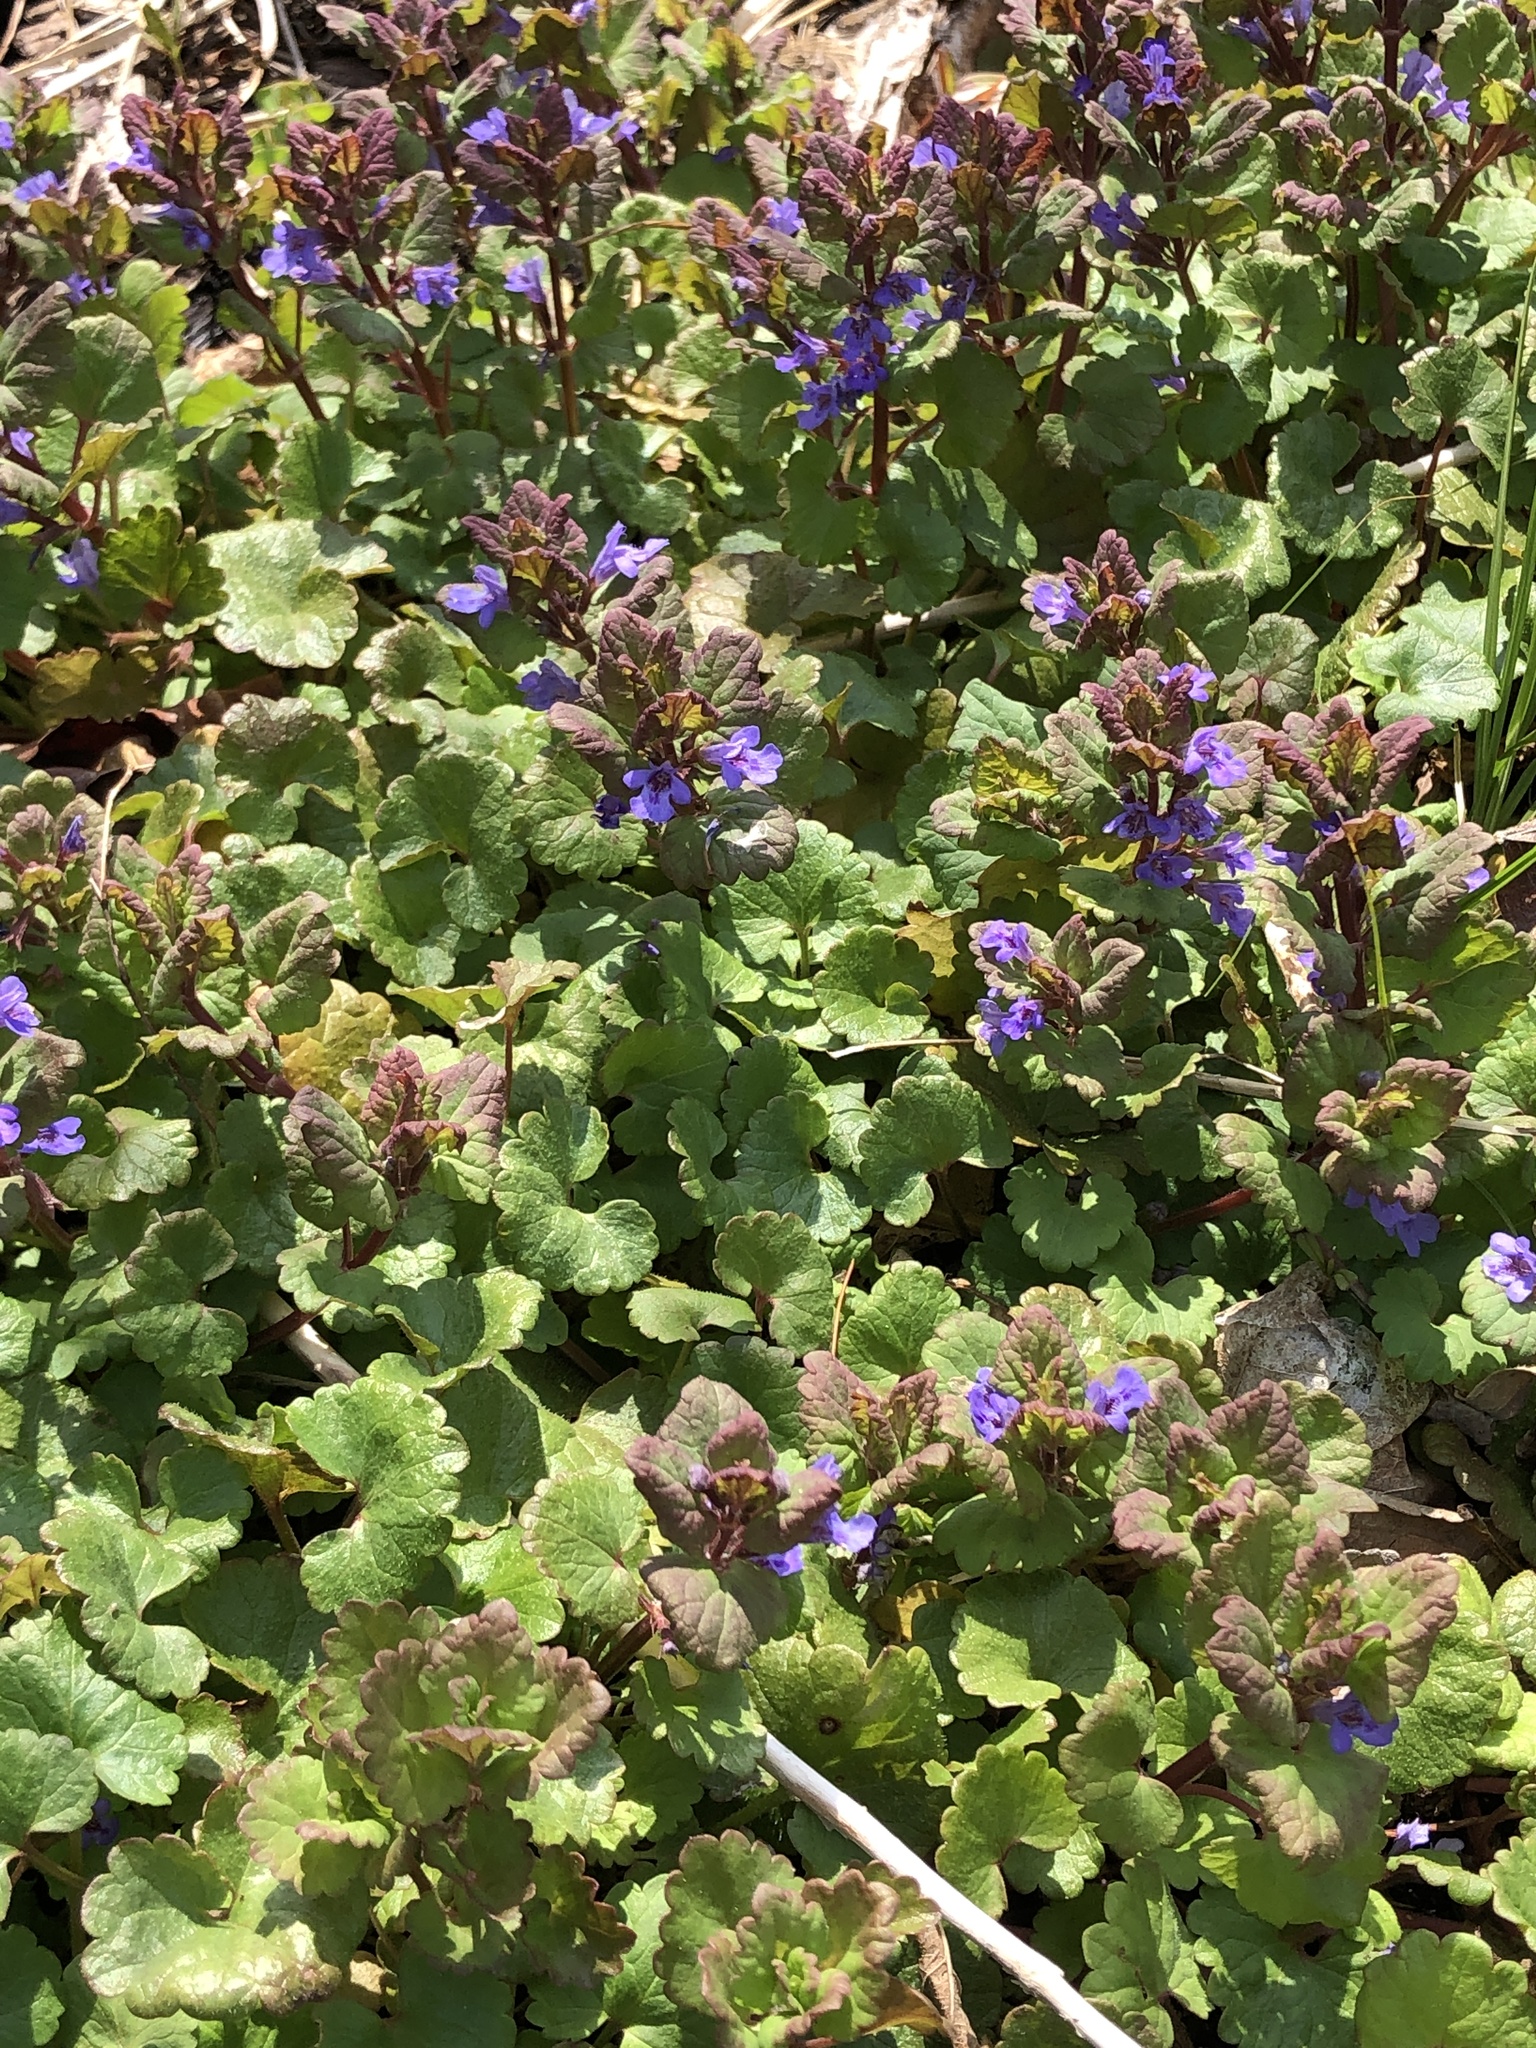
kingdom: Plantae
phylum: Tracheophyta
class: Magnoliopsida
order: Lamiales
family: Lamiaceae
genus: Glechoma
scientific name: Glechoma hederacea
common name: Ground ivy
